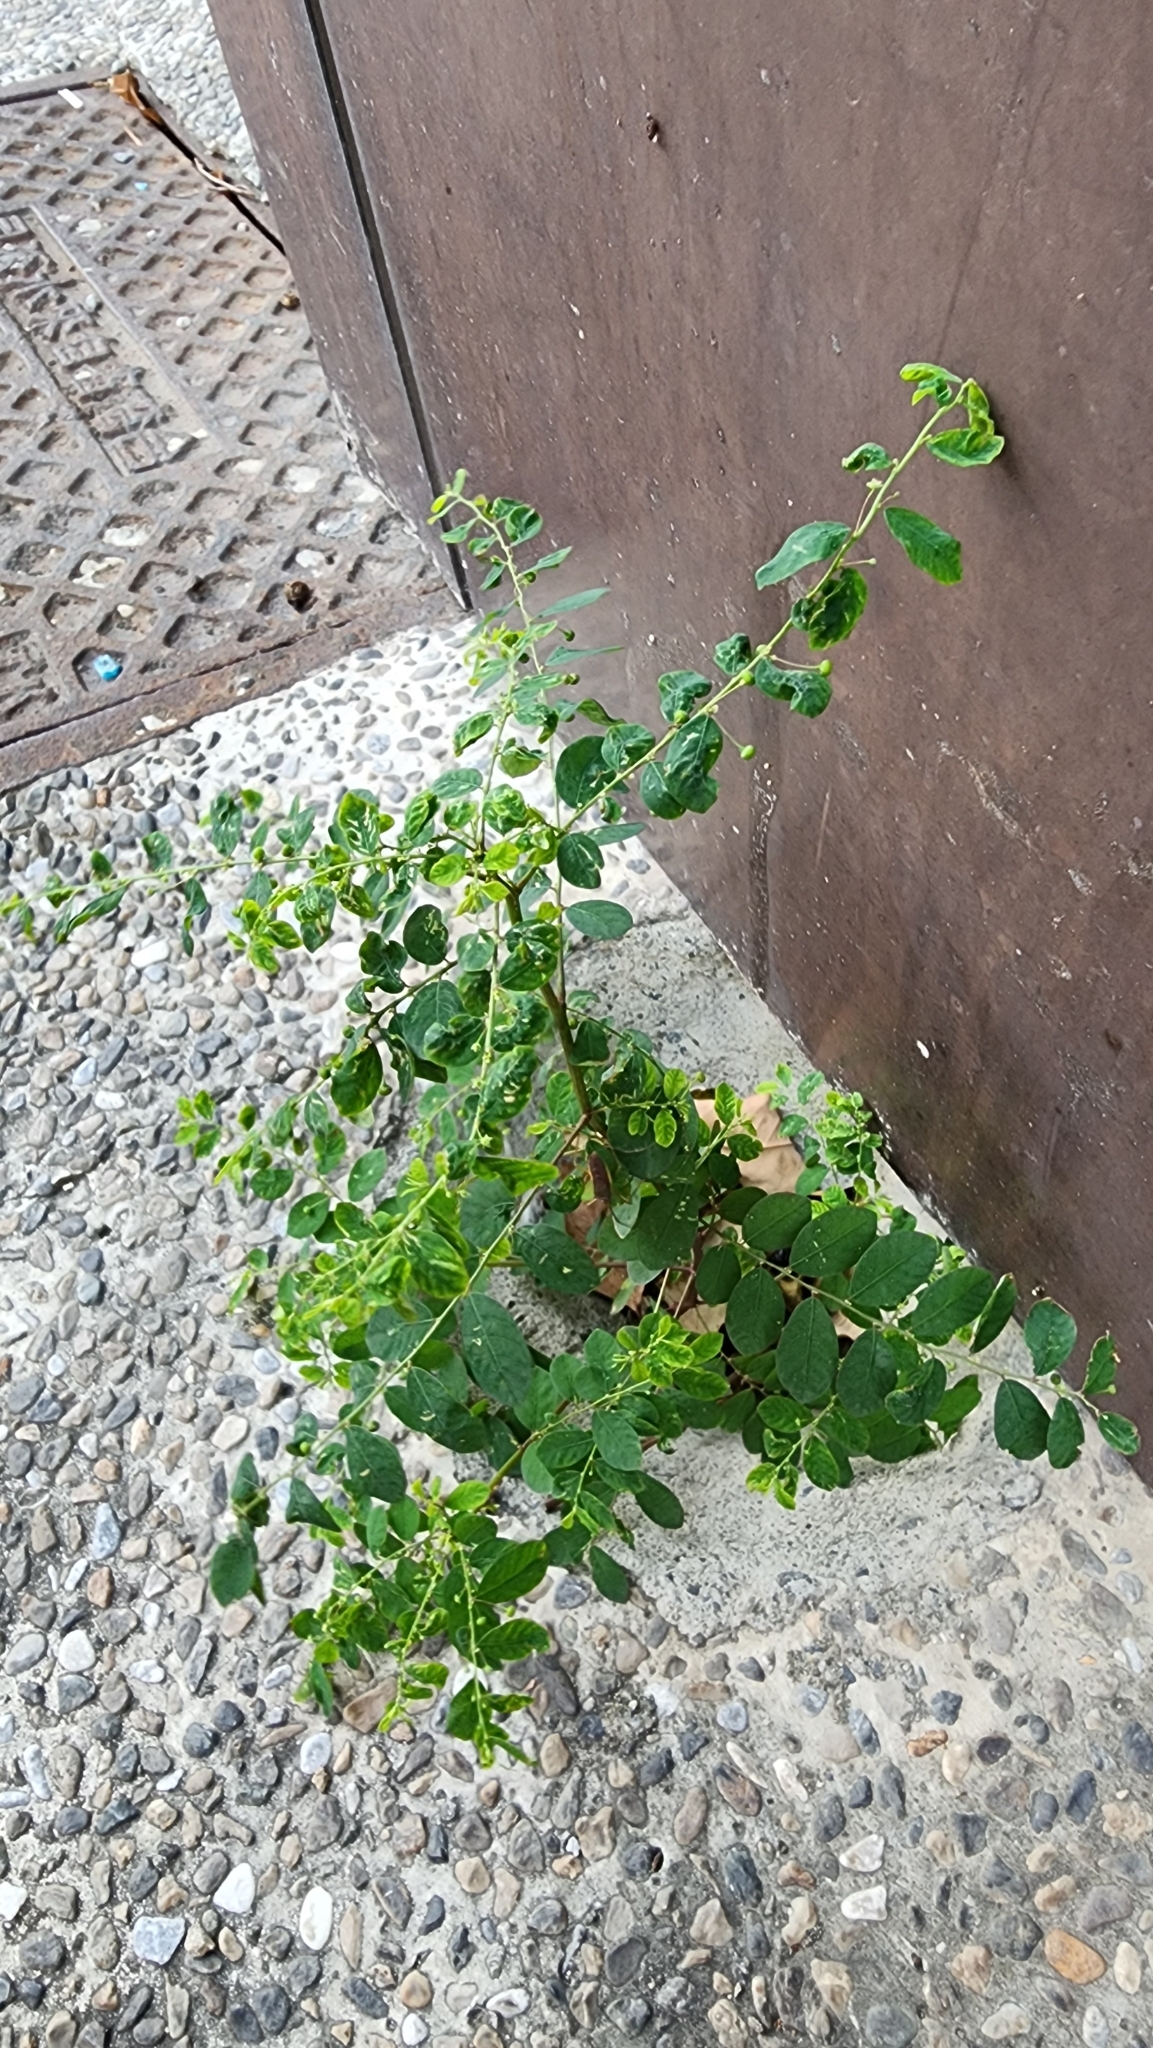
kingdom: Plantae
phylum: Tracheophyta
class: Magnoliopsida
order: Malpighiales
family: Phyllanthaceae
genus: Phyllanthus
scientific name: Phyllanthus tenellus
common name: Mascarene island leaf-flower
